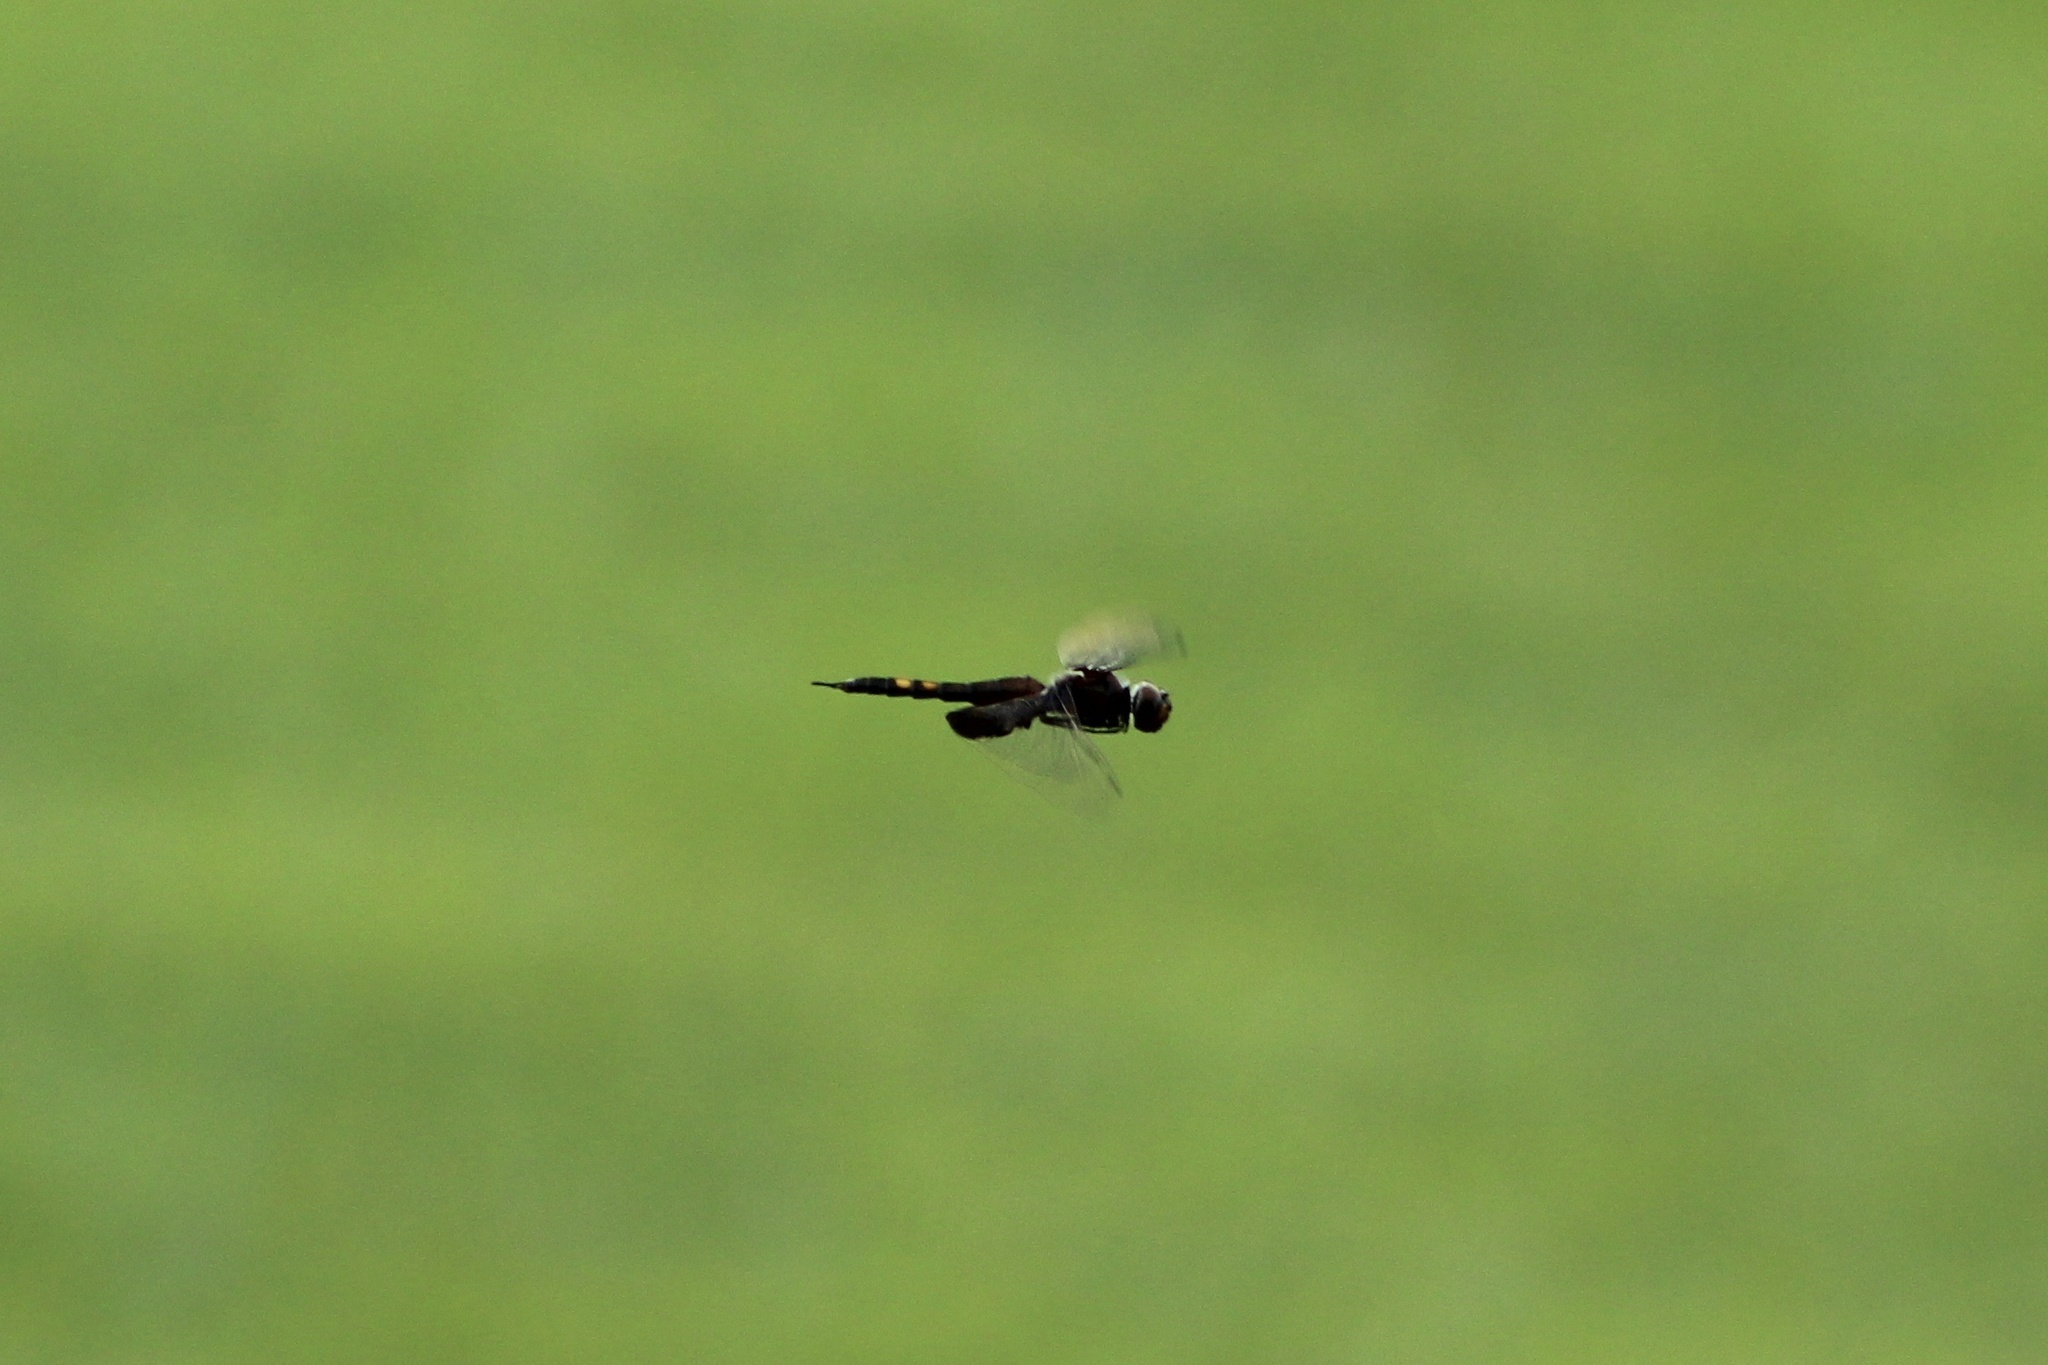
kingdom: Animalia
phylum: Arthropoda
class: Insecta
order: Odonata
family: Libellulidae
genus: Tramea
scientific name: Tramea lacerata
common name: Black saddlebags
